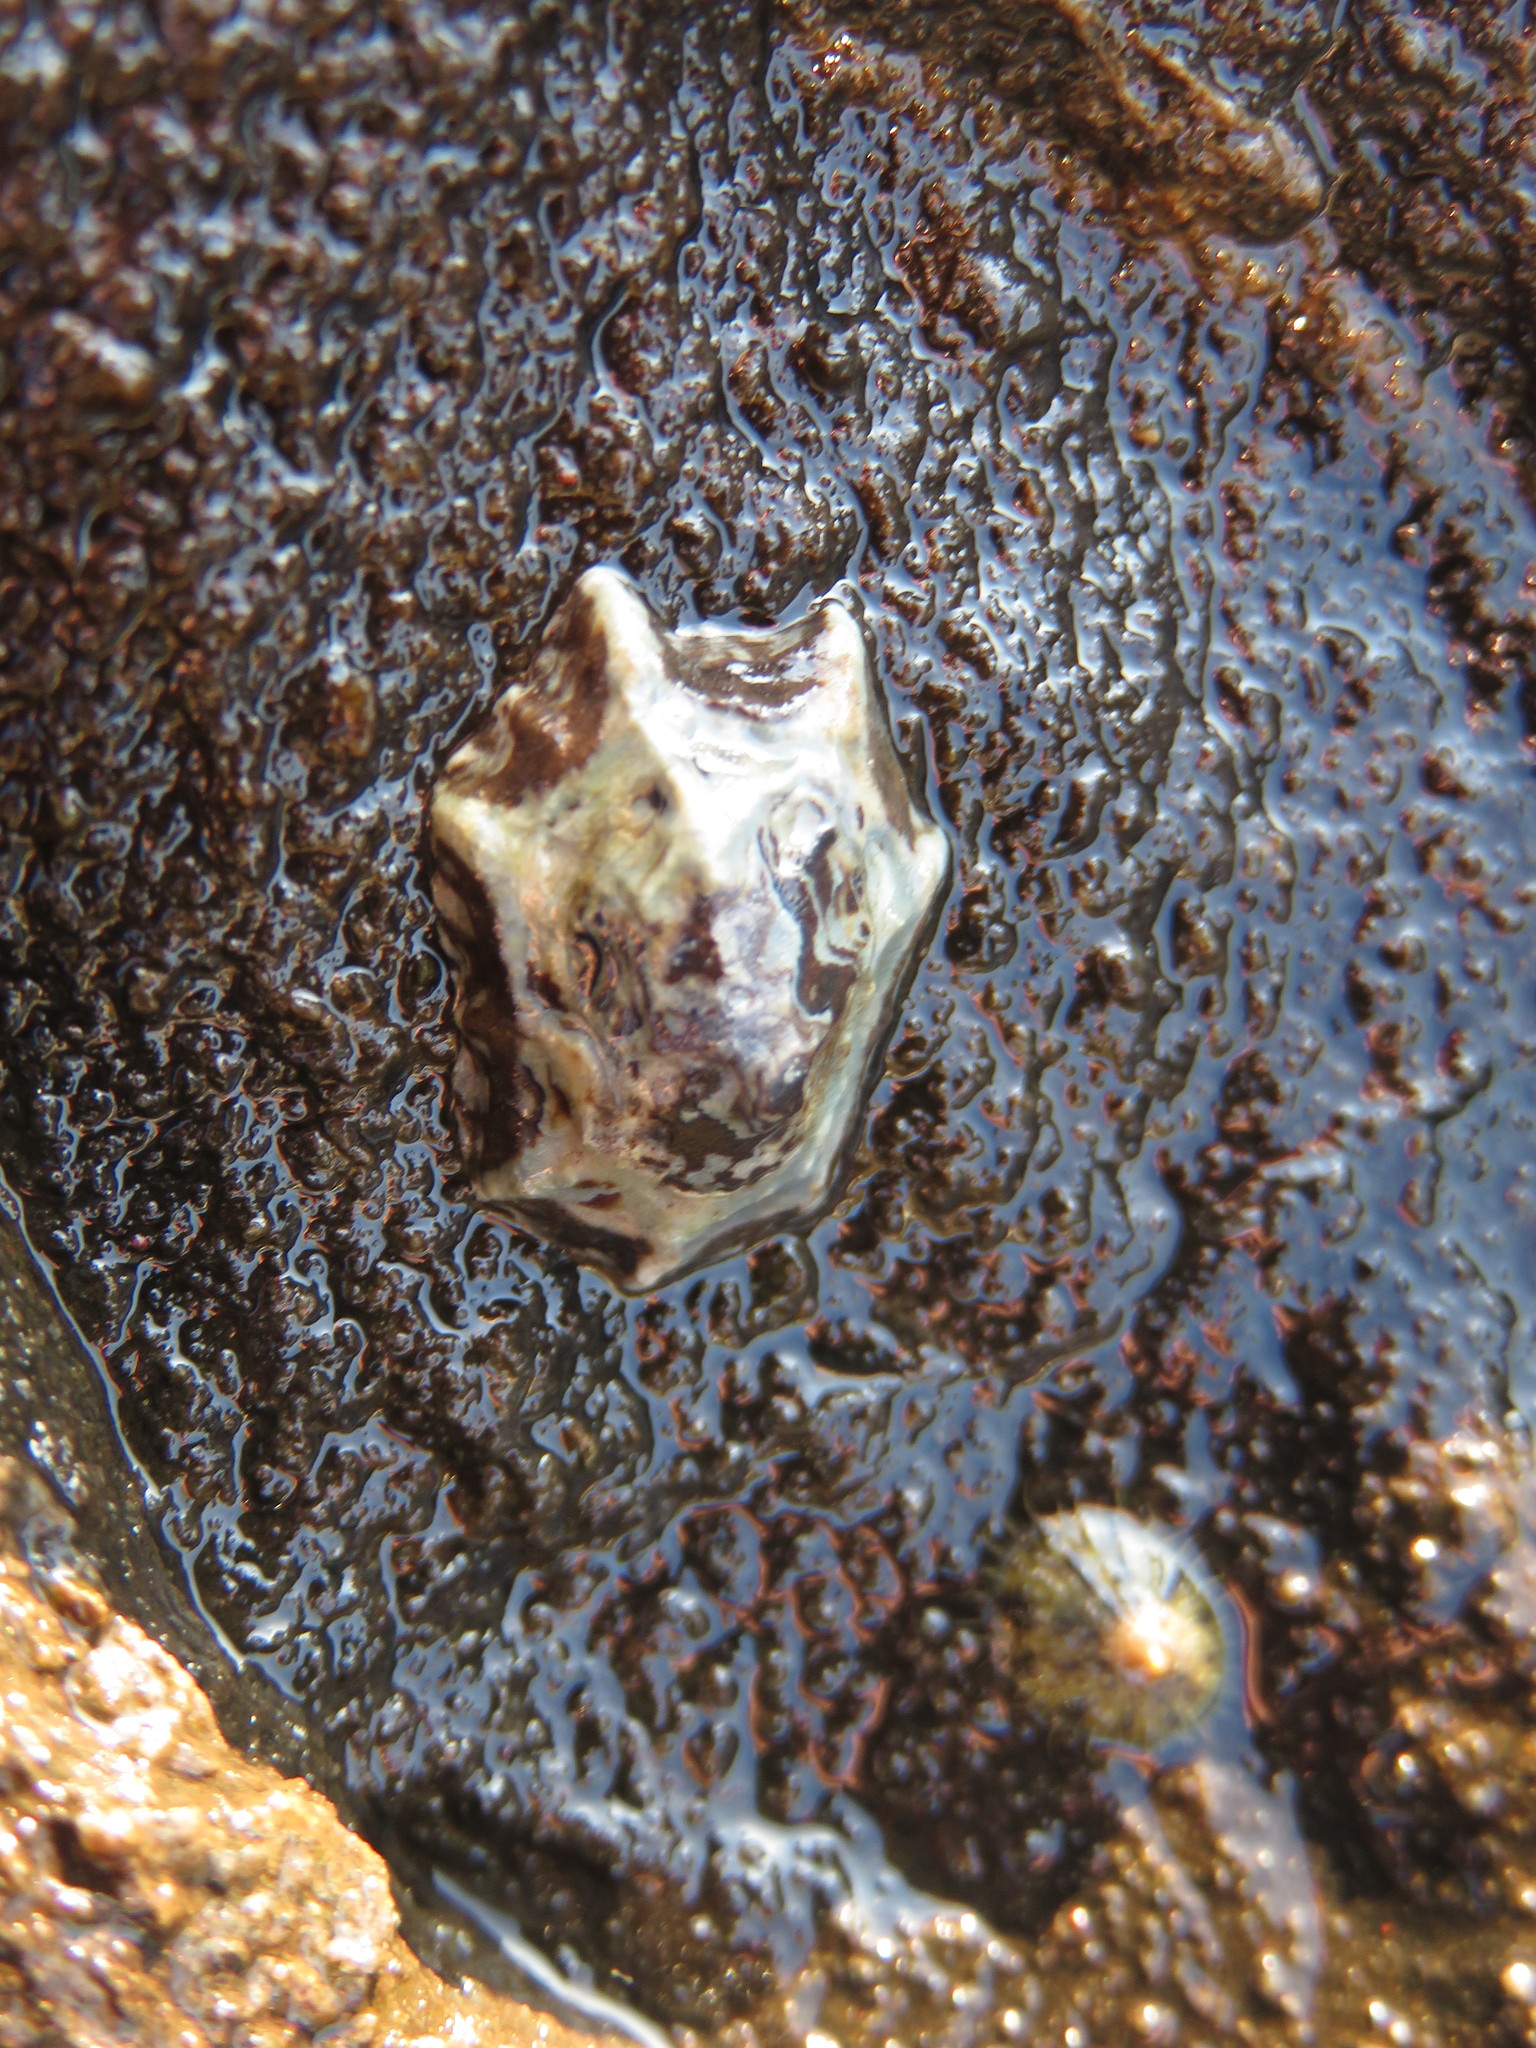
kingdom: Animalia
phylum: Mollusca
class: Gastropoda
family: Lottiidae
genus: Patelloida
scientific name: Patelloida saccharina
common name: Pacific sugar limpet
